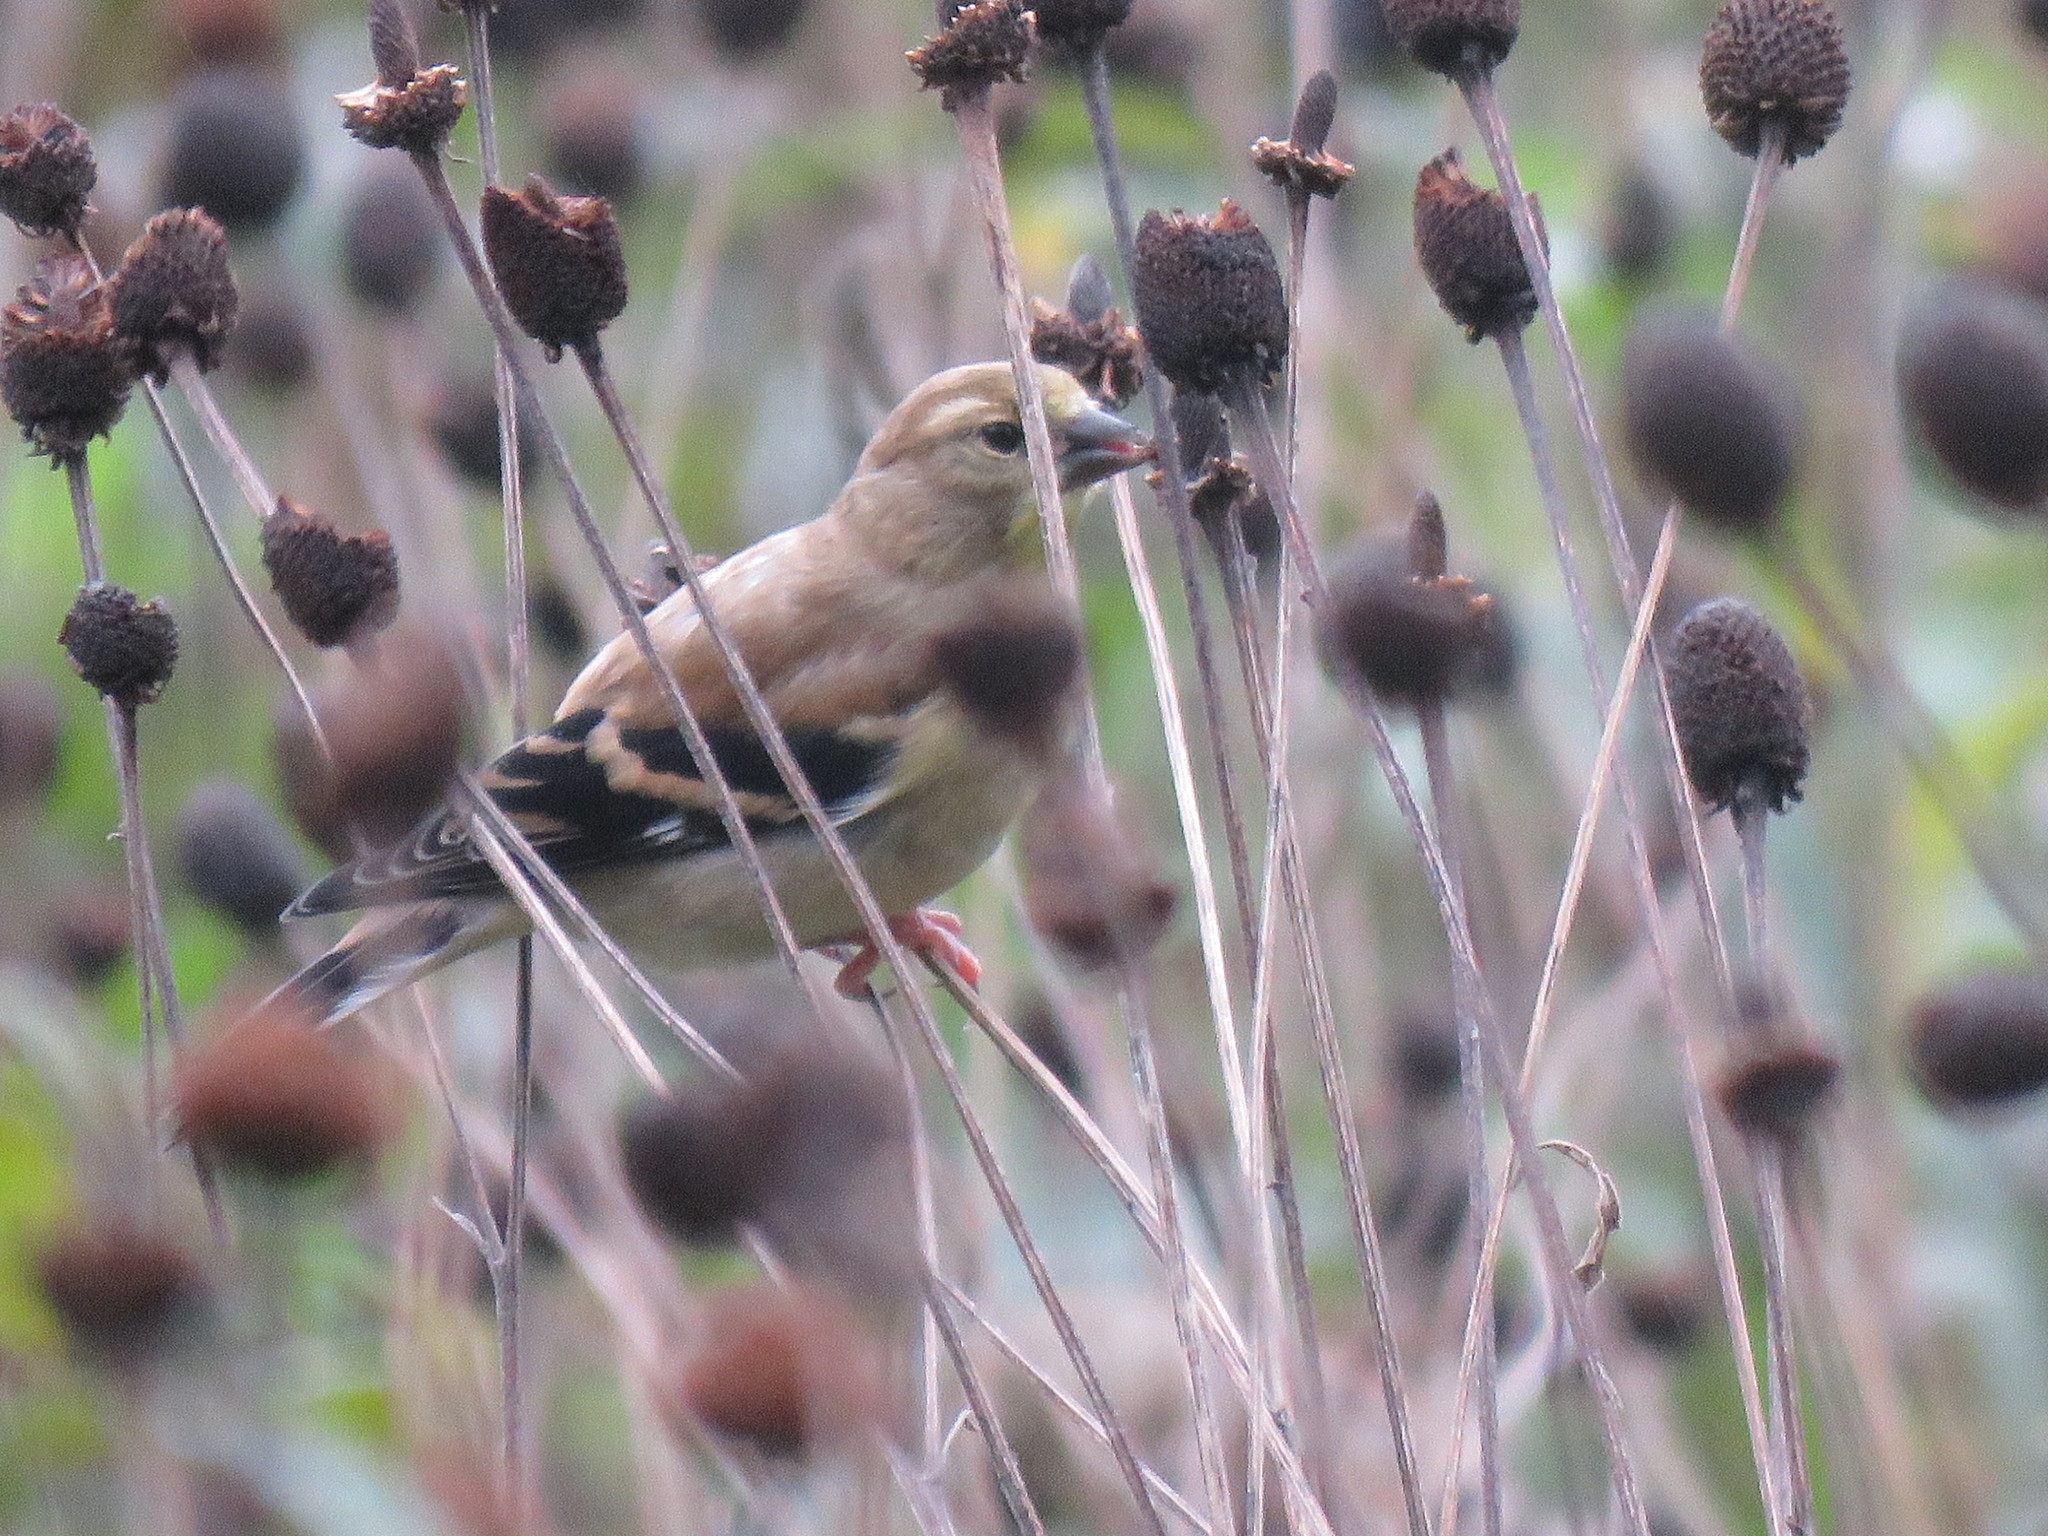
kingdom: Animalia
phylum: Chordata
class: Aves
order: Passeriformes
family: Fringillidae
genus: Spinus
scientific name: Spinus tristis
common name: American goldfinch
